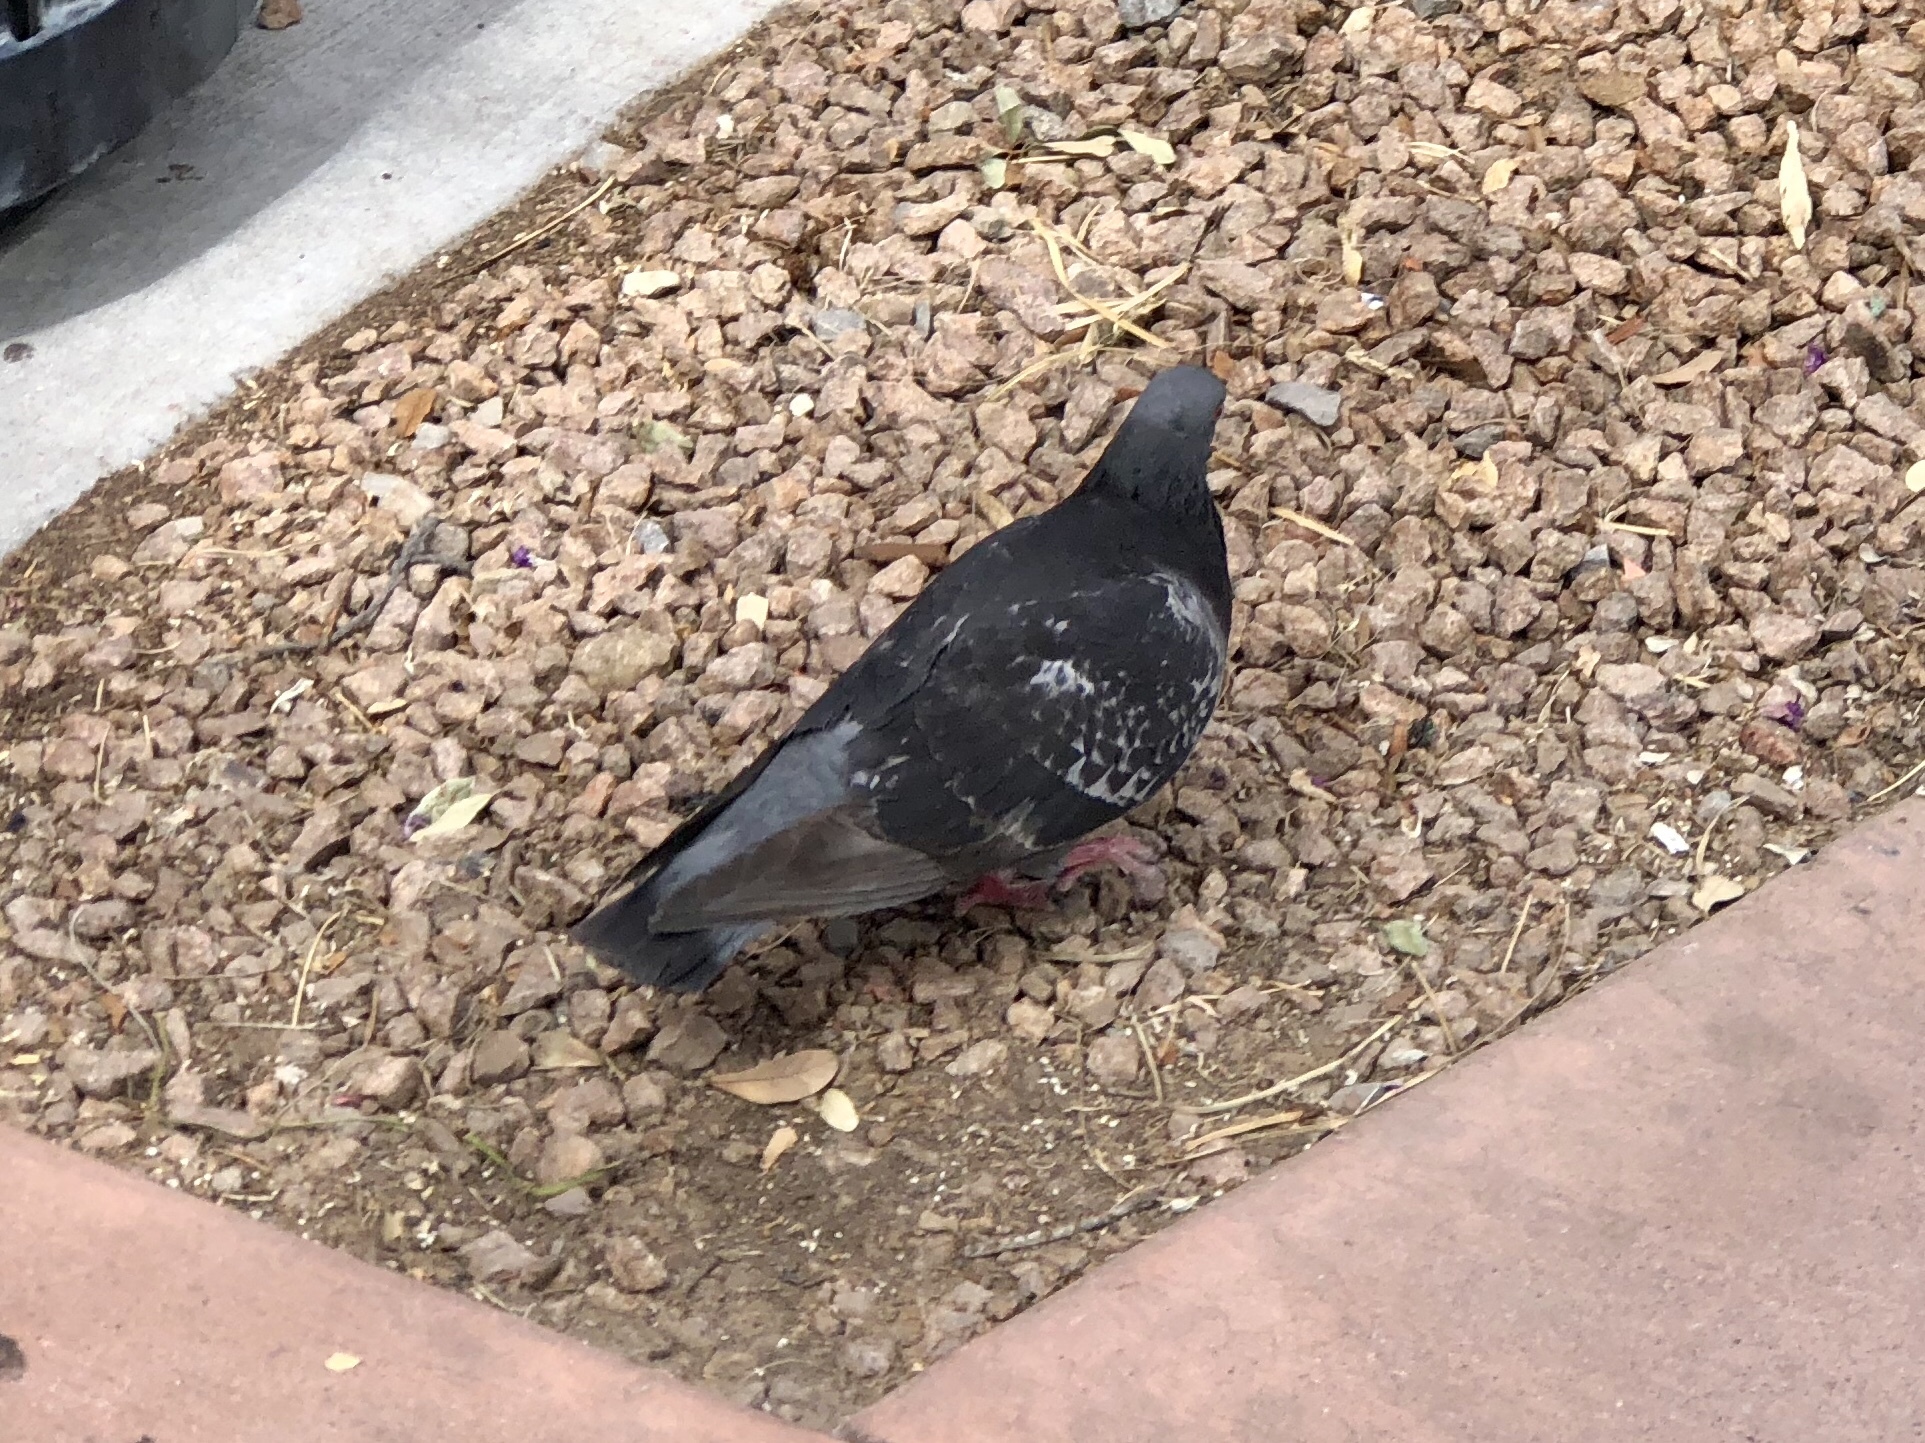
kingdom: Animalia
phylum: Chordata
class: Aves
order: Columbiformes
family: Columbidae
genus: Columba
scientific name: Columba livia
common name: Rock pigeon
